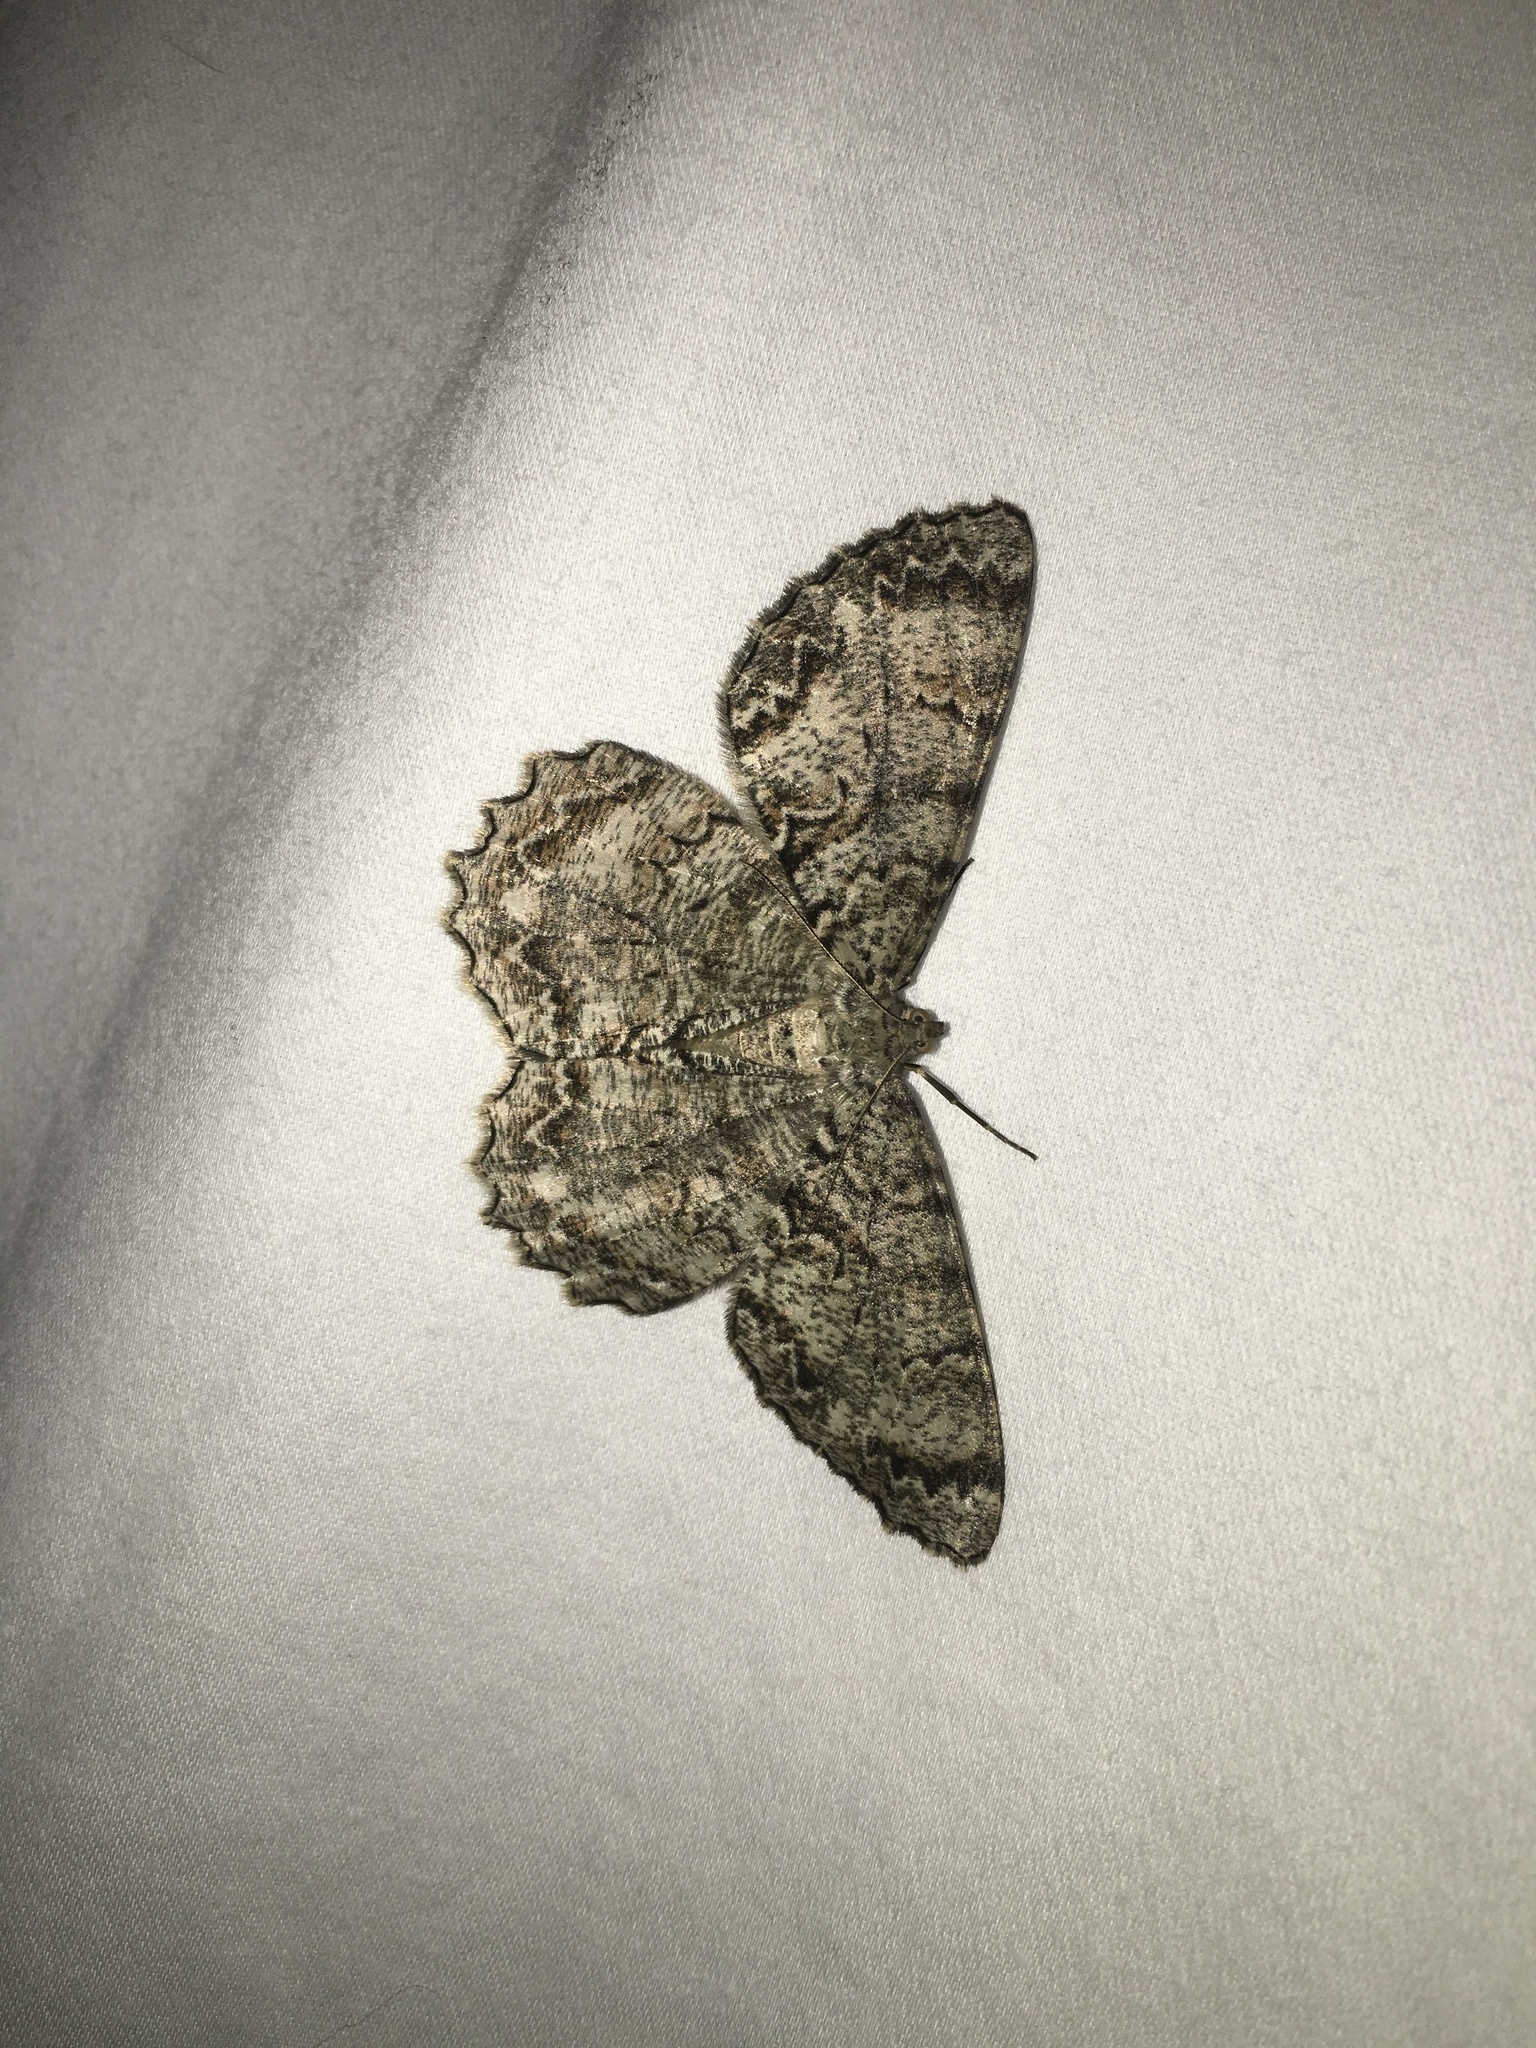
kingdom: Animalia
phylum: Arthropoda
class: Insecta
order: Lepidoptera
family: Geometridae
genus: Epimecis
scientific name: Epimecis hortaria
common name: Tulip-tree beauty
